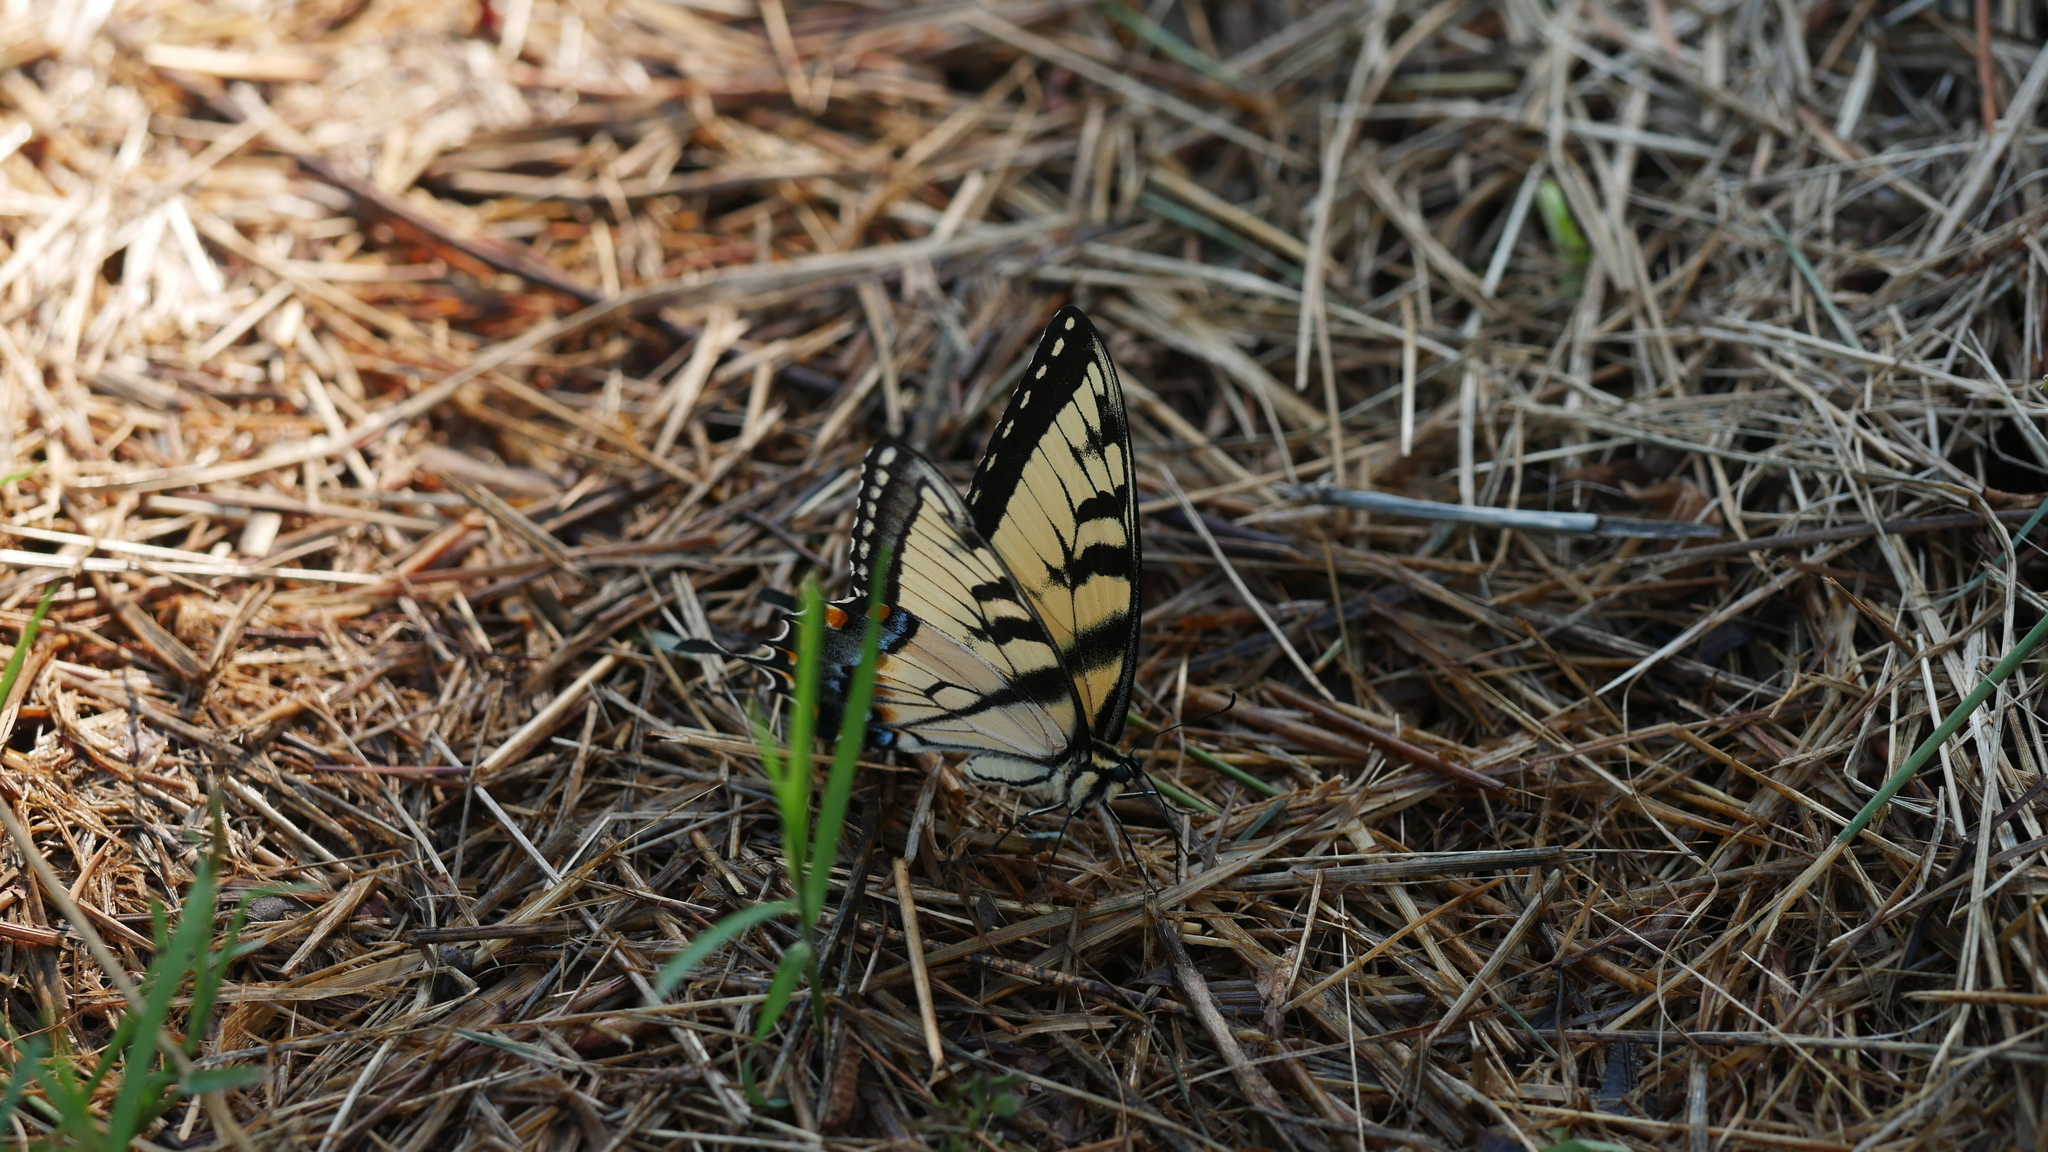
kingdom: Animalia
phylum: Arthropoda
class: Insecta
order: Lepidoptera
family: Papilionidae
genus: Papilio
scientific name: Papilio glaucus
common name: Tiger swallowtail
